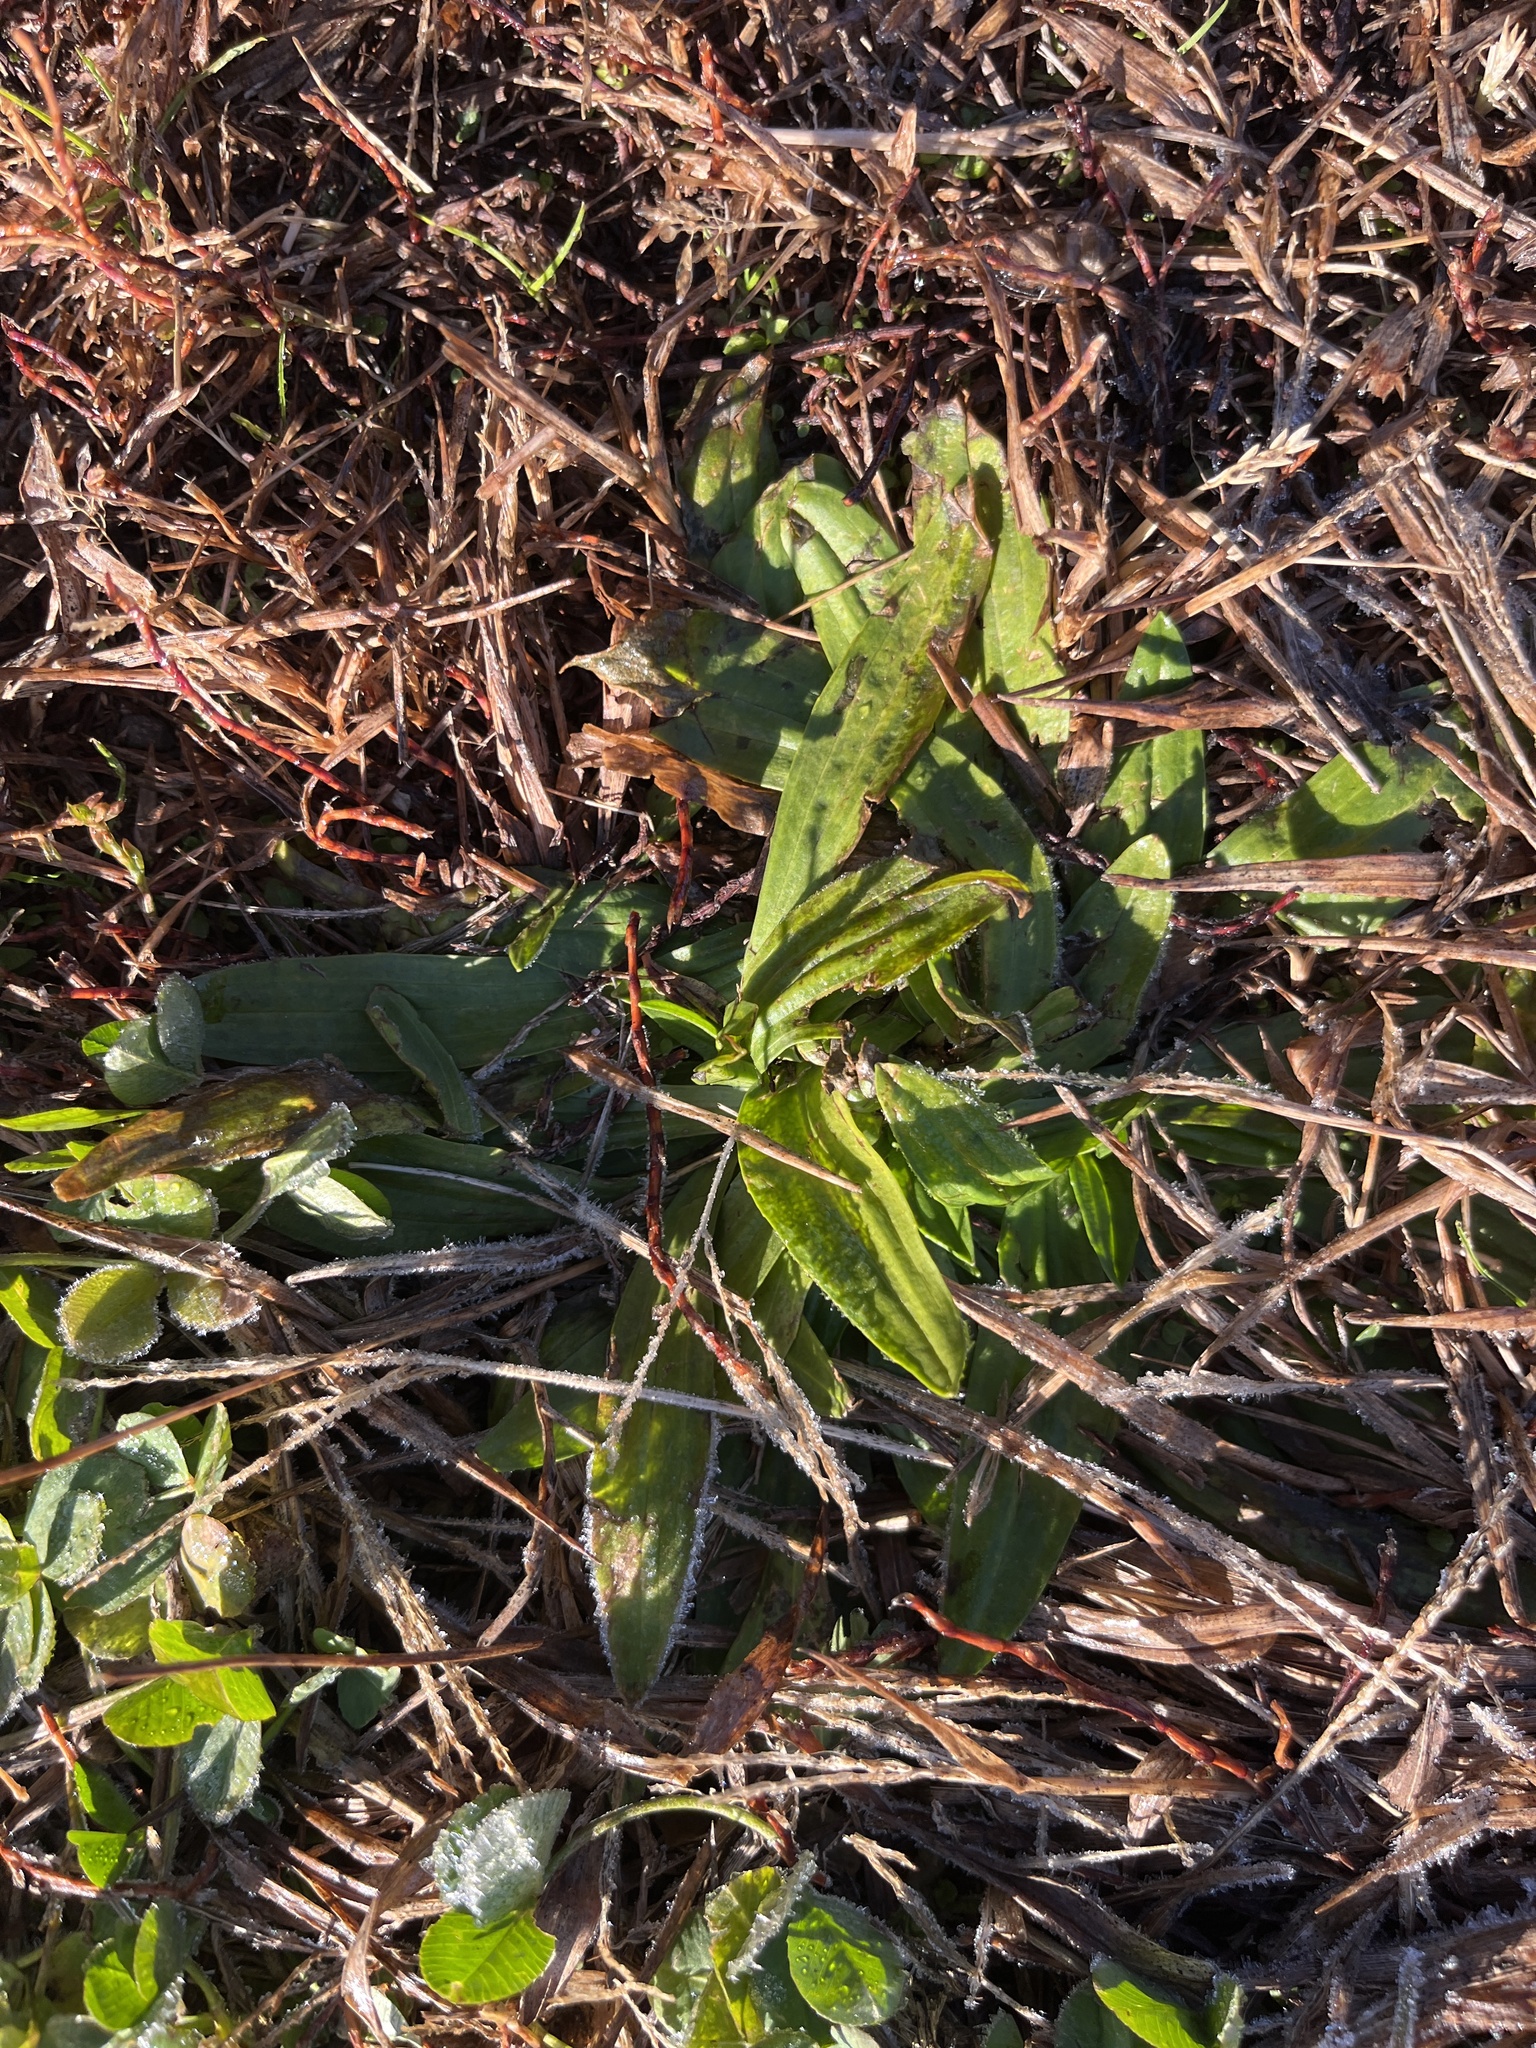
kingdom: Plantae
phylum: Tracheophyta
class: Magnoliopsida
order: Lamiales
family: Plantaginaceae
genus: Plantago
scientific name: Plantago lanceolata
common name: Ribwort plantain
